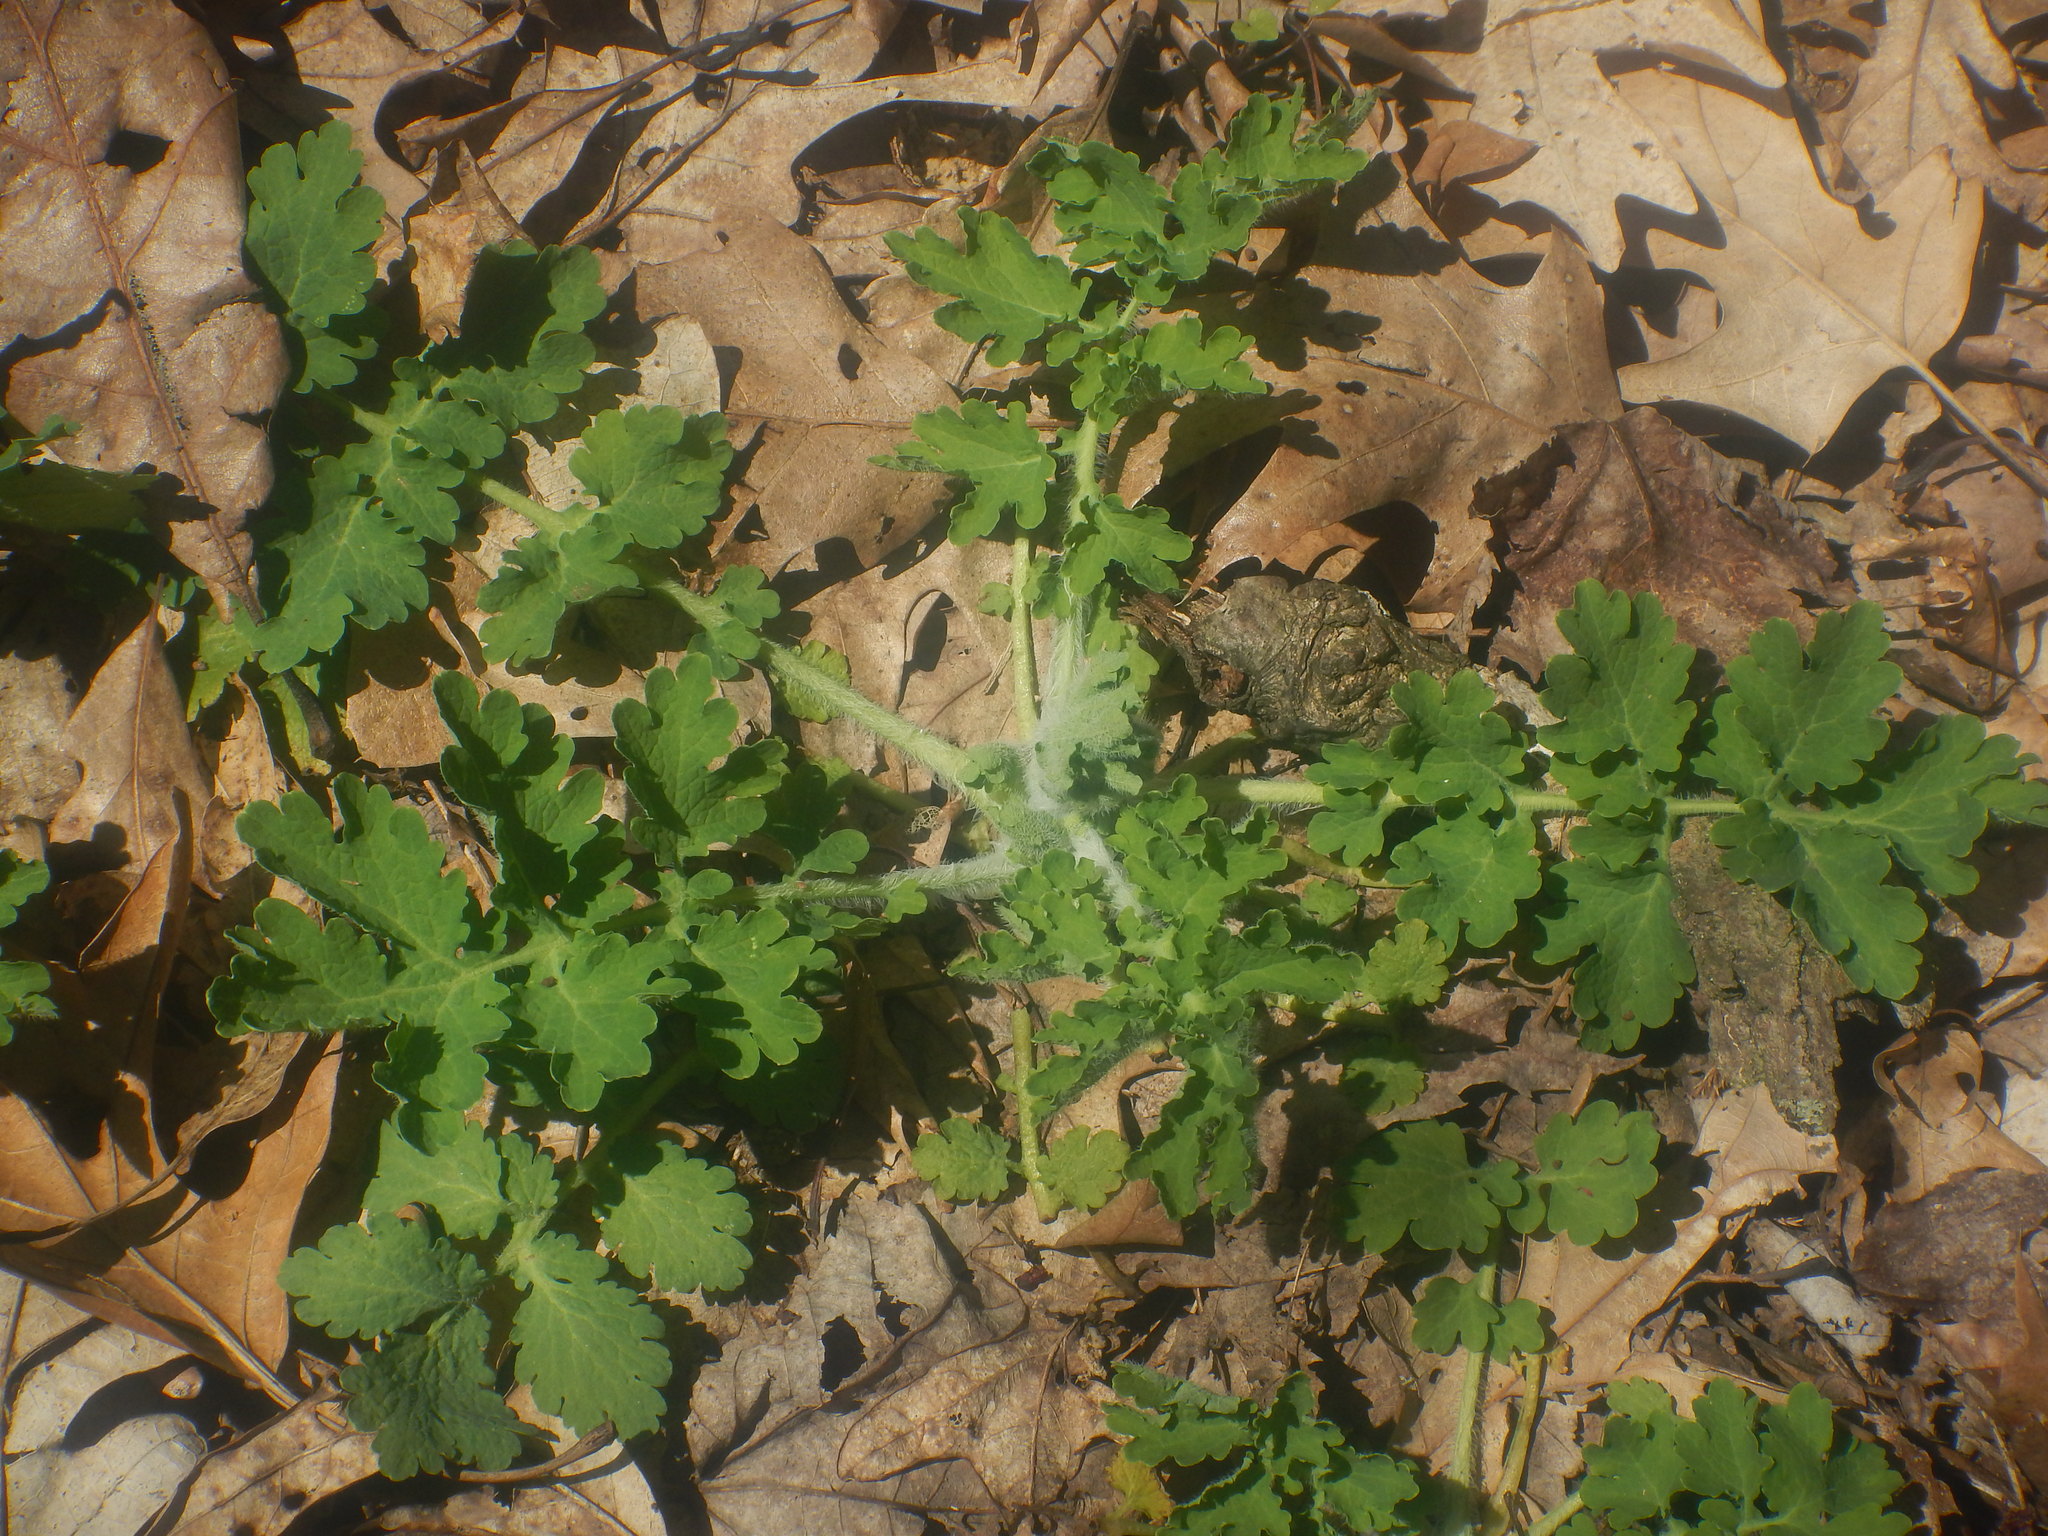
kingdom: Plantae
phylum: Tracheophyta
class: Magnoliopsida
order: Ranunculales
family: Papaveraceae
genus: Chelidonium
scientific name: Chelidonium majus
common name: Greater celandine
